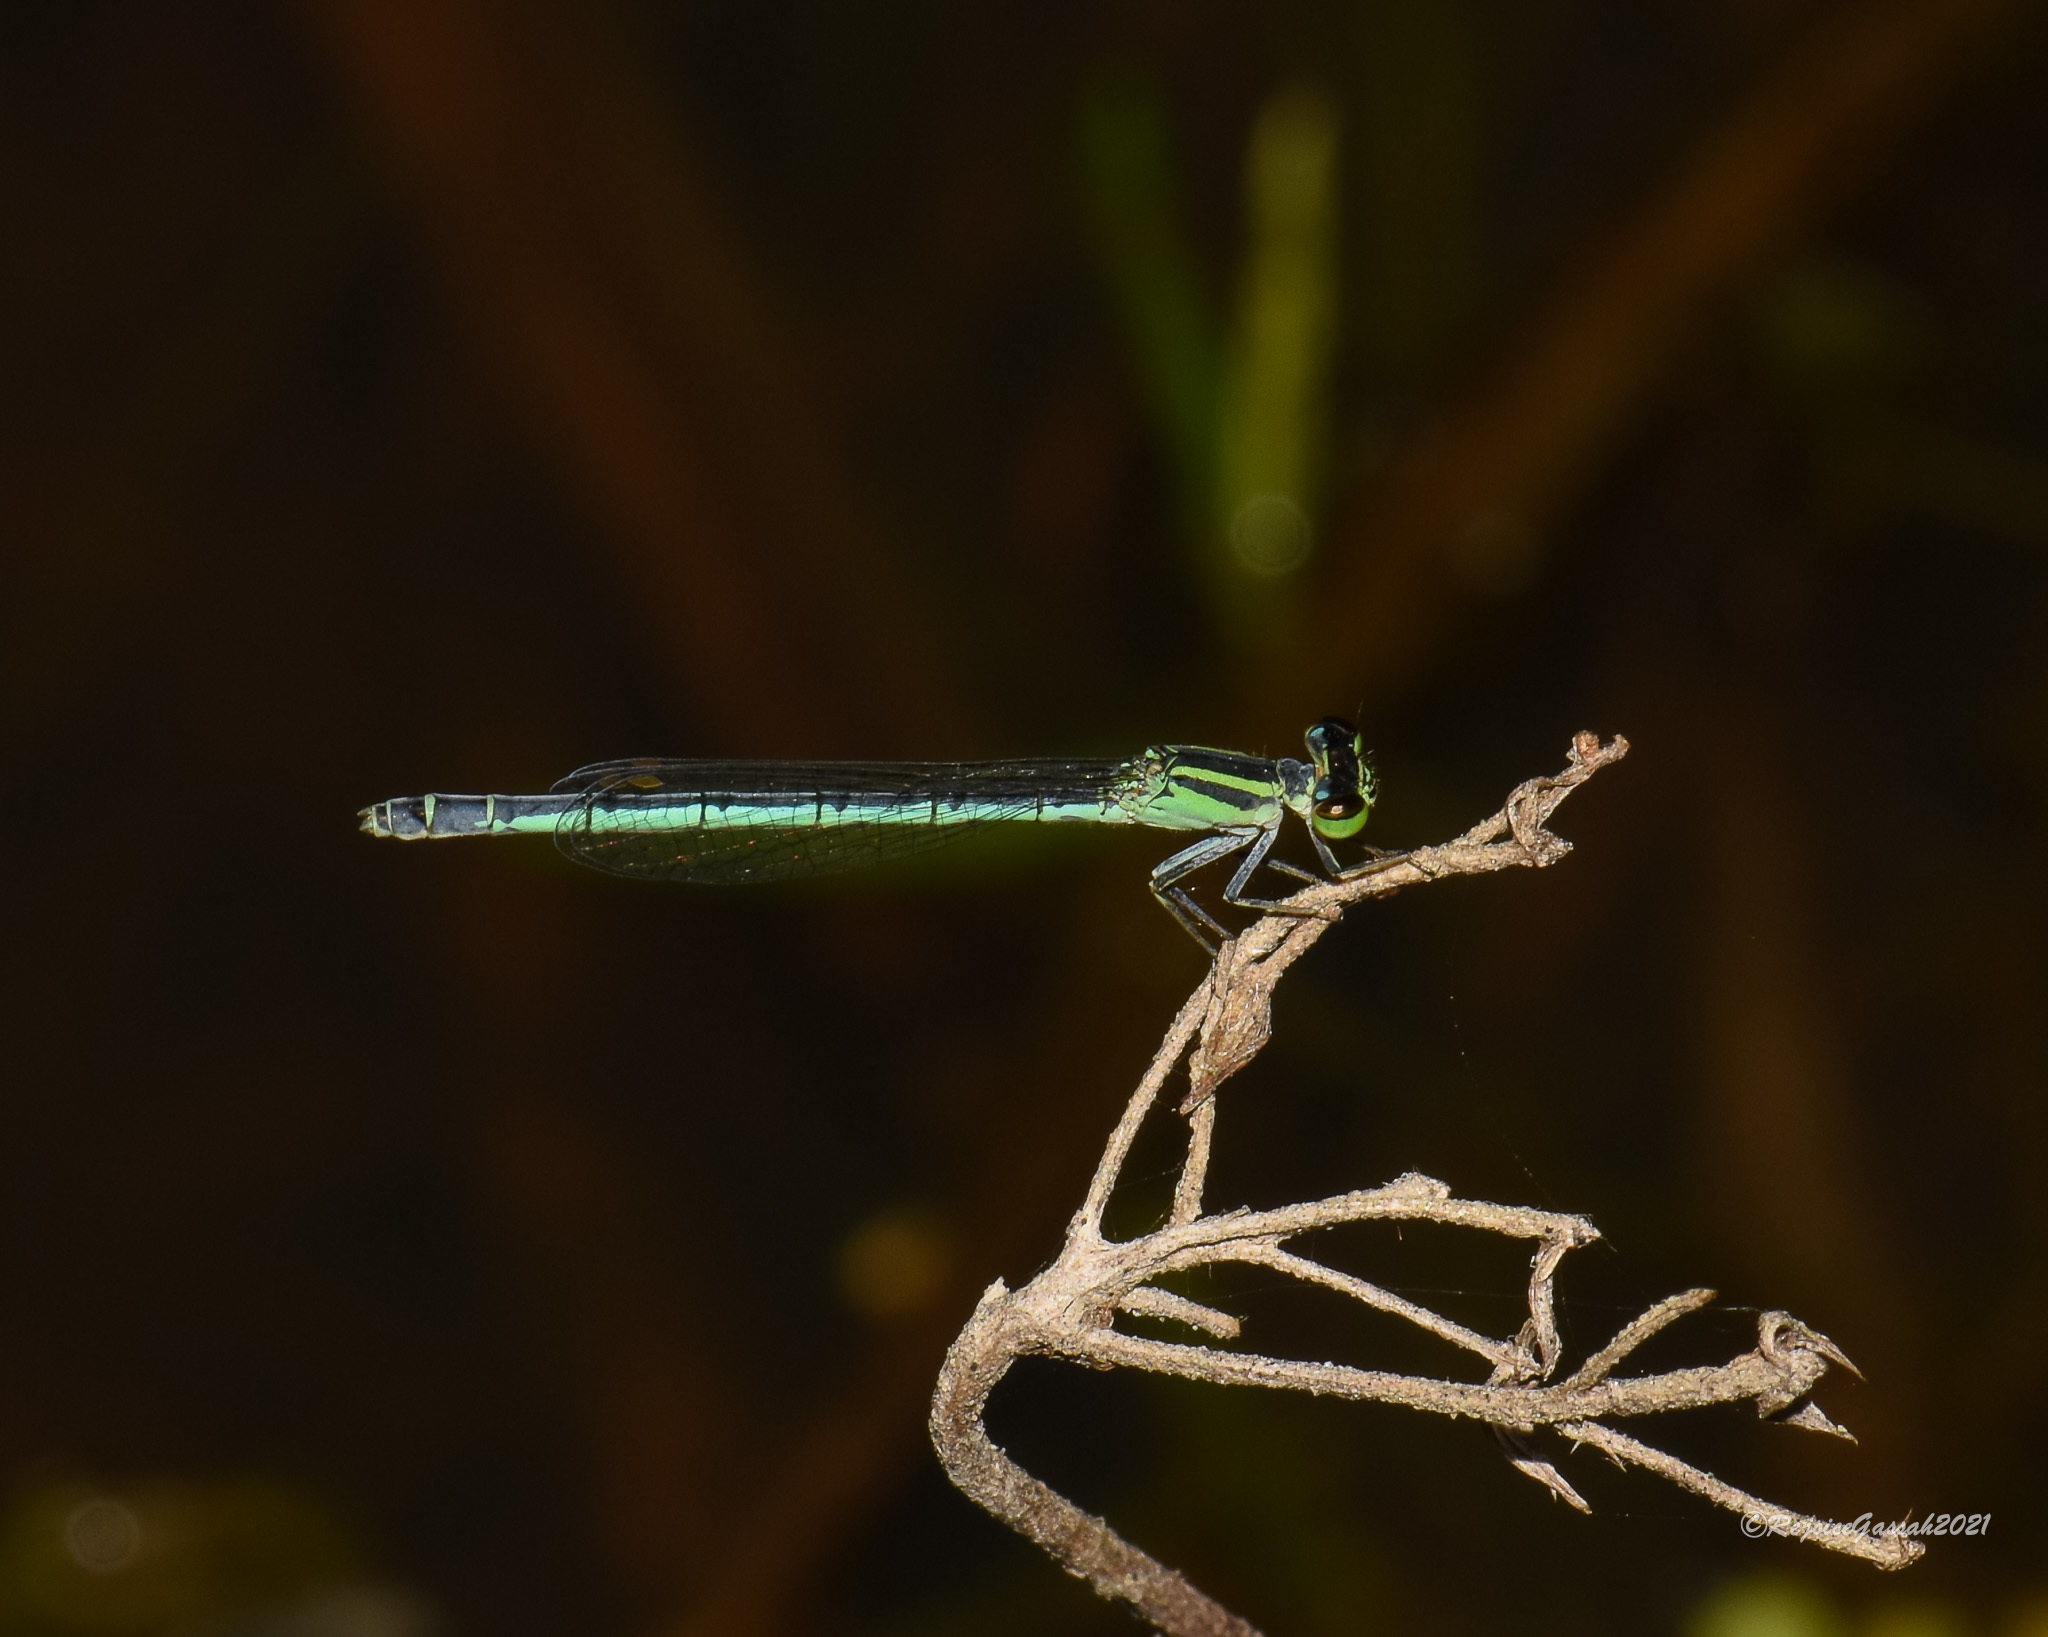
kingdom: Animalia
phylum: Arthropoda
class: Insecta
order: Odonata
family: Coenagrionidae
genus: Agriocnemis
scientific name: Agriocnemis kalinga
